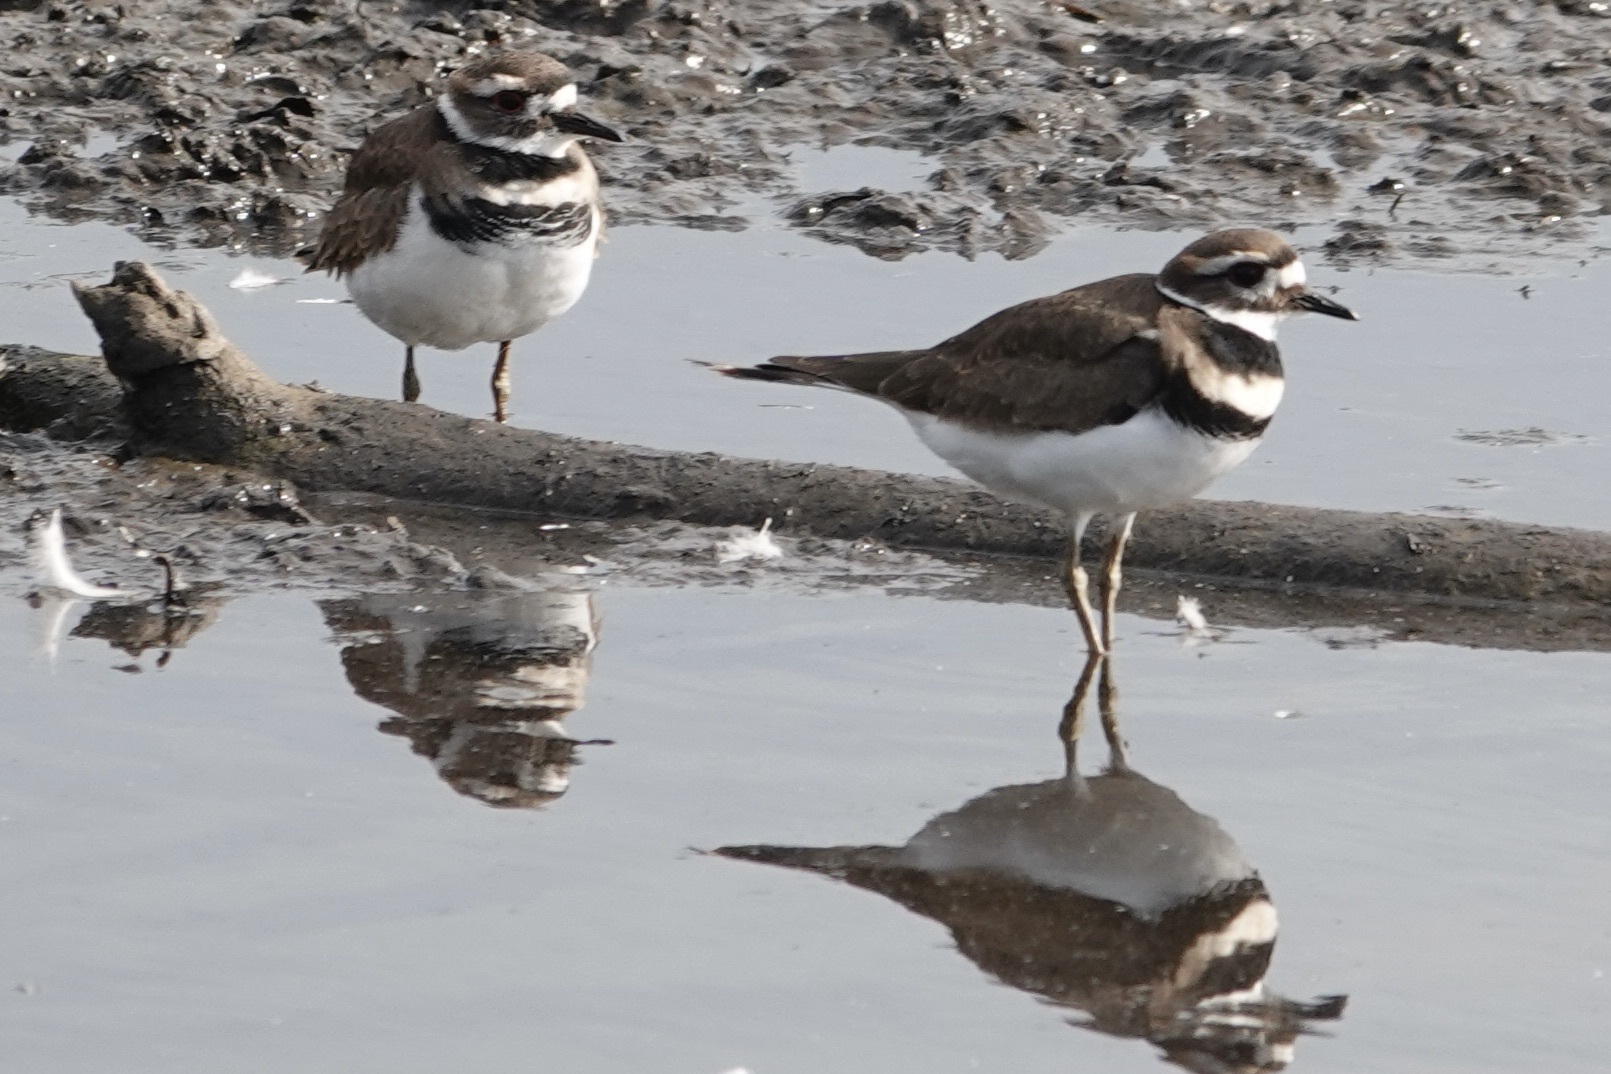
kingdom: Animalia
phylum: Chordata
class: Aves
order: Charadriiformes
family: Charadriidae
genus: Charadrius
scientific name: Charadrius vociferus
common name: Killdeer
